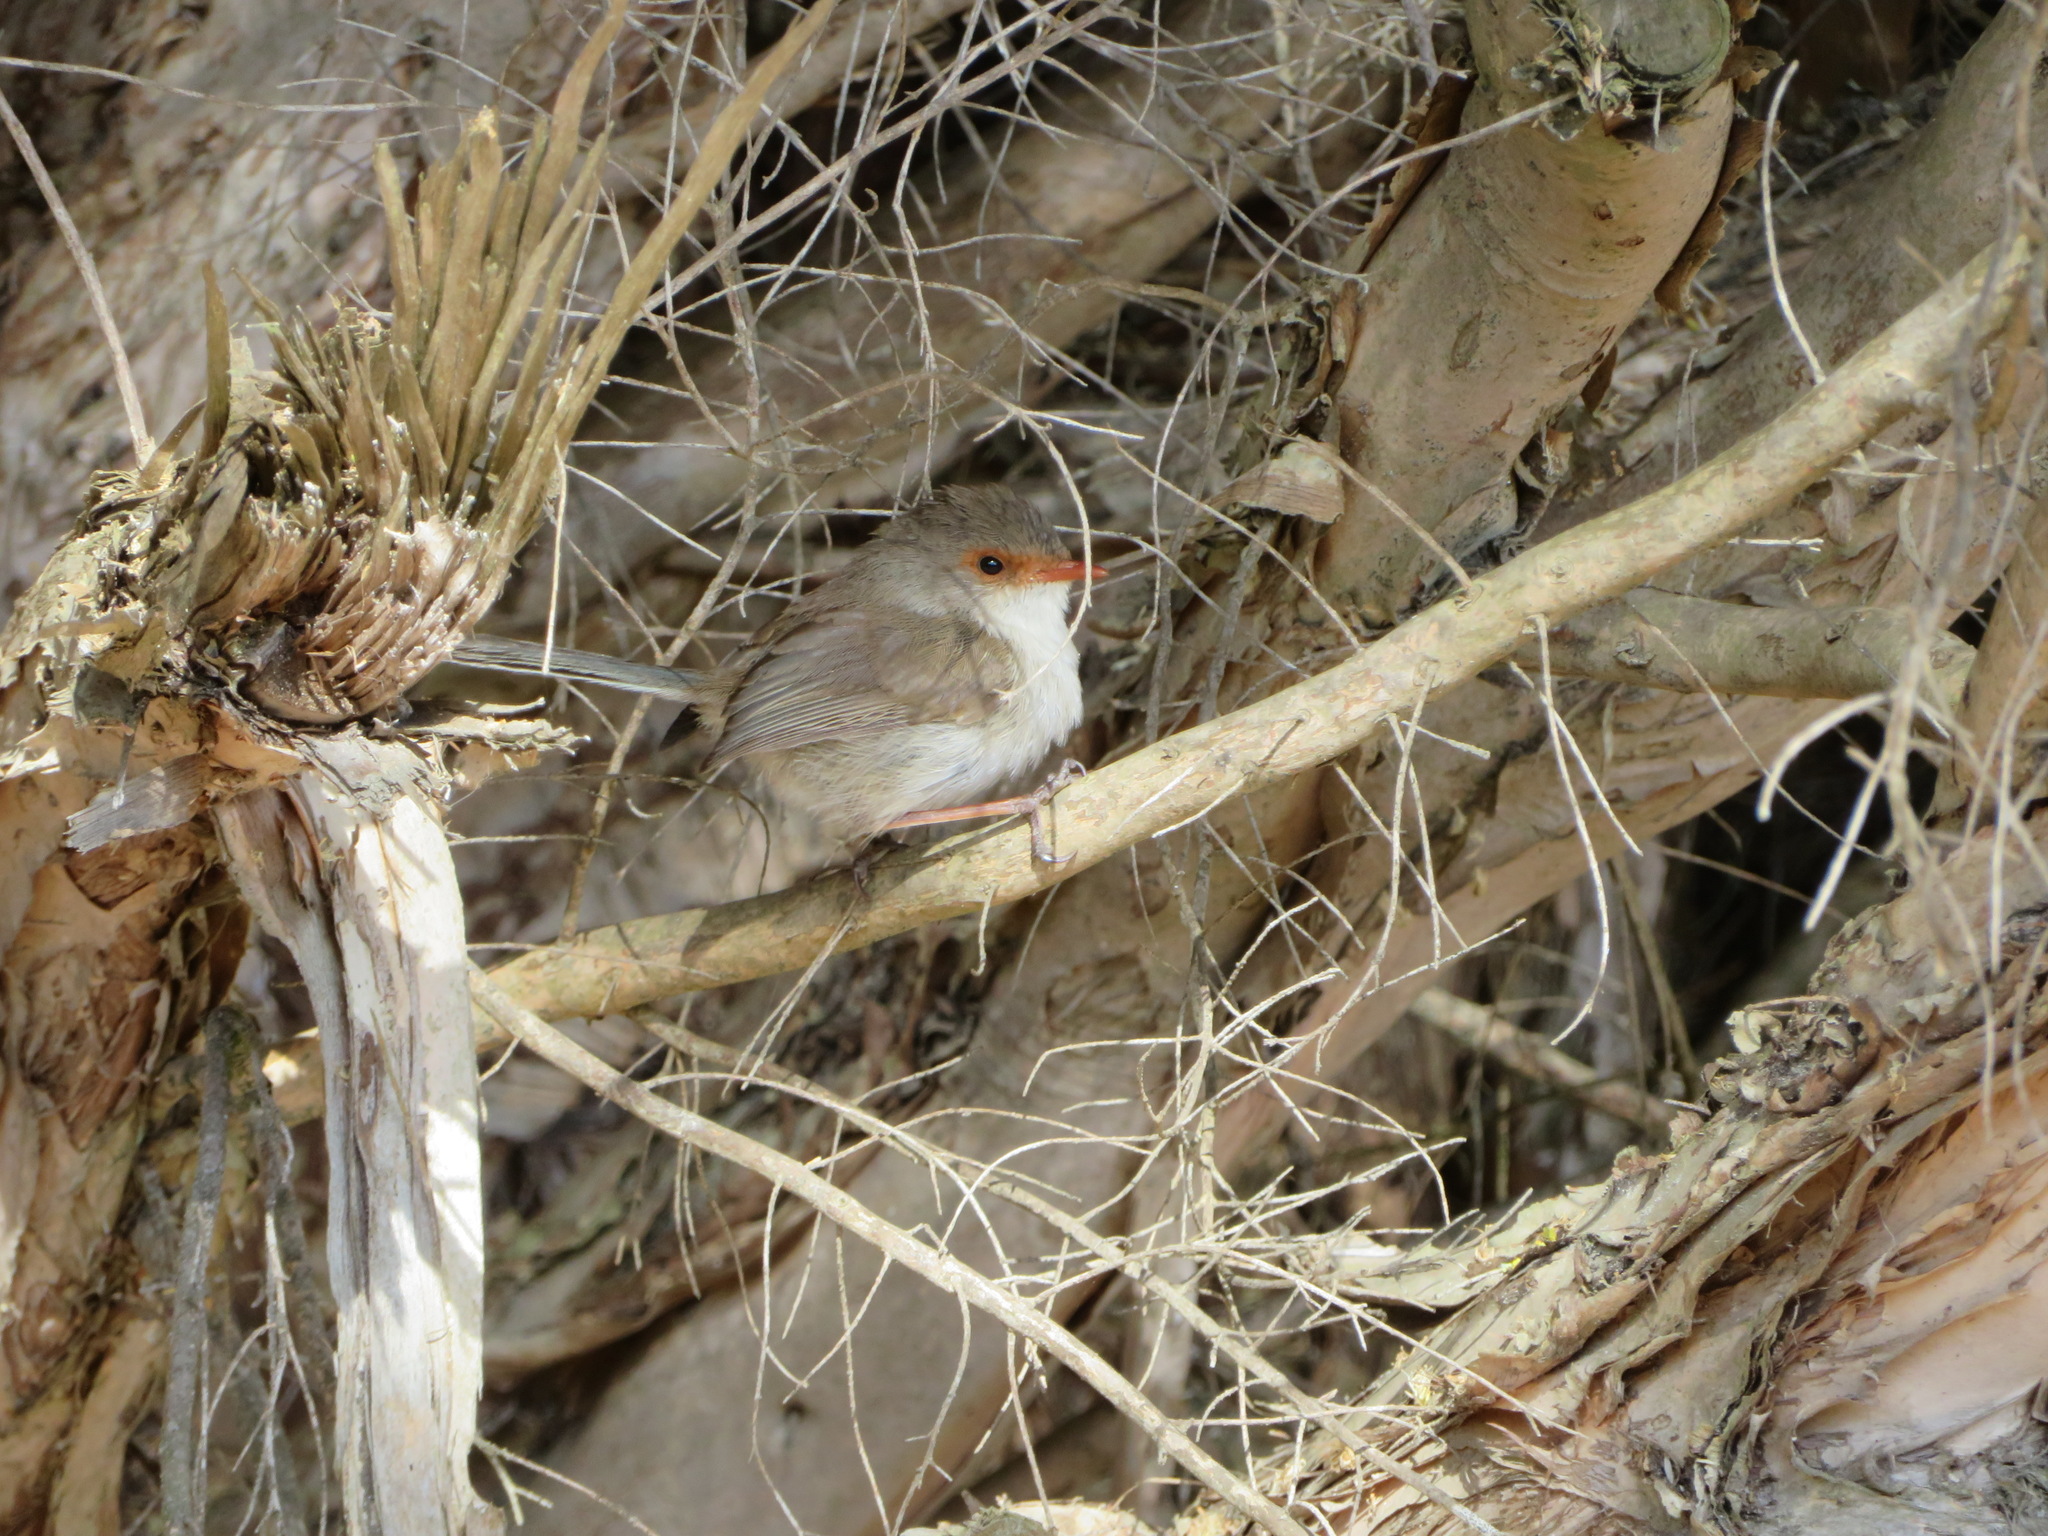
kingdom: Animalia
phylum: Chordata
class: Aves
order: Passeriformes
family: Maluridae
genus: Malurus
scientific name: Malurus cyaneus
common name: Superb fairywren
